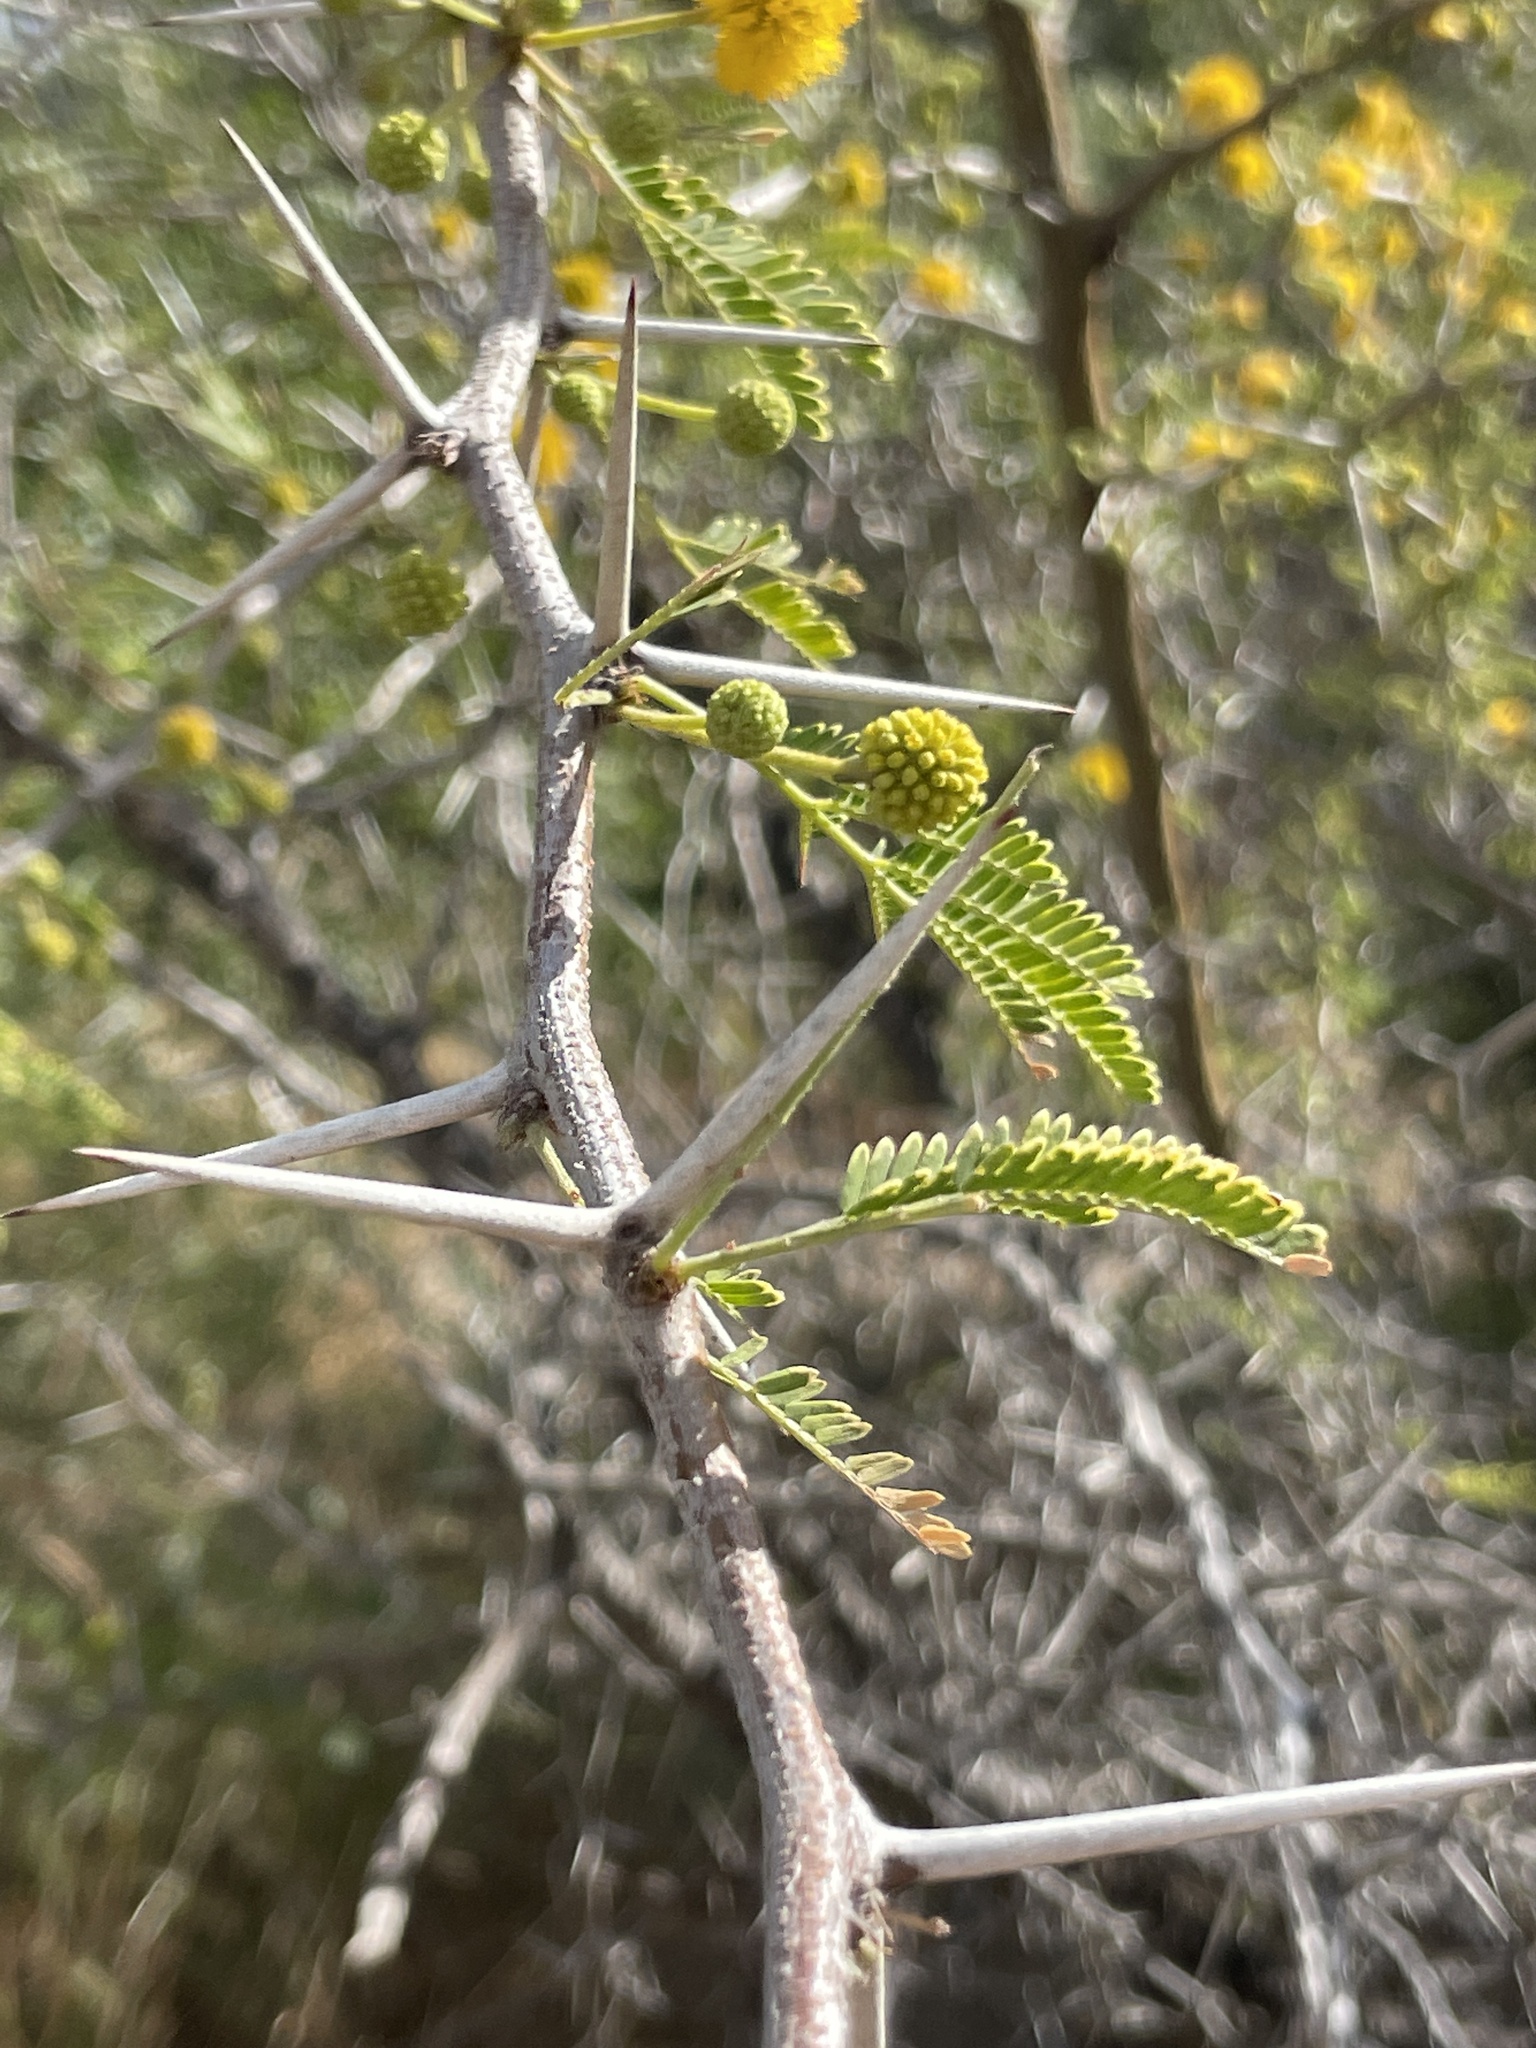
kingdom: Plantae
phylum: Tracheophyta
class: Magnoliopsida
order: Fabales
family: Fabaceae
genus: Vachellia
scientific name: Vachellia farnesiana
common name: Sweet acacia
